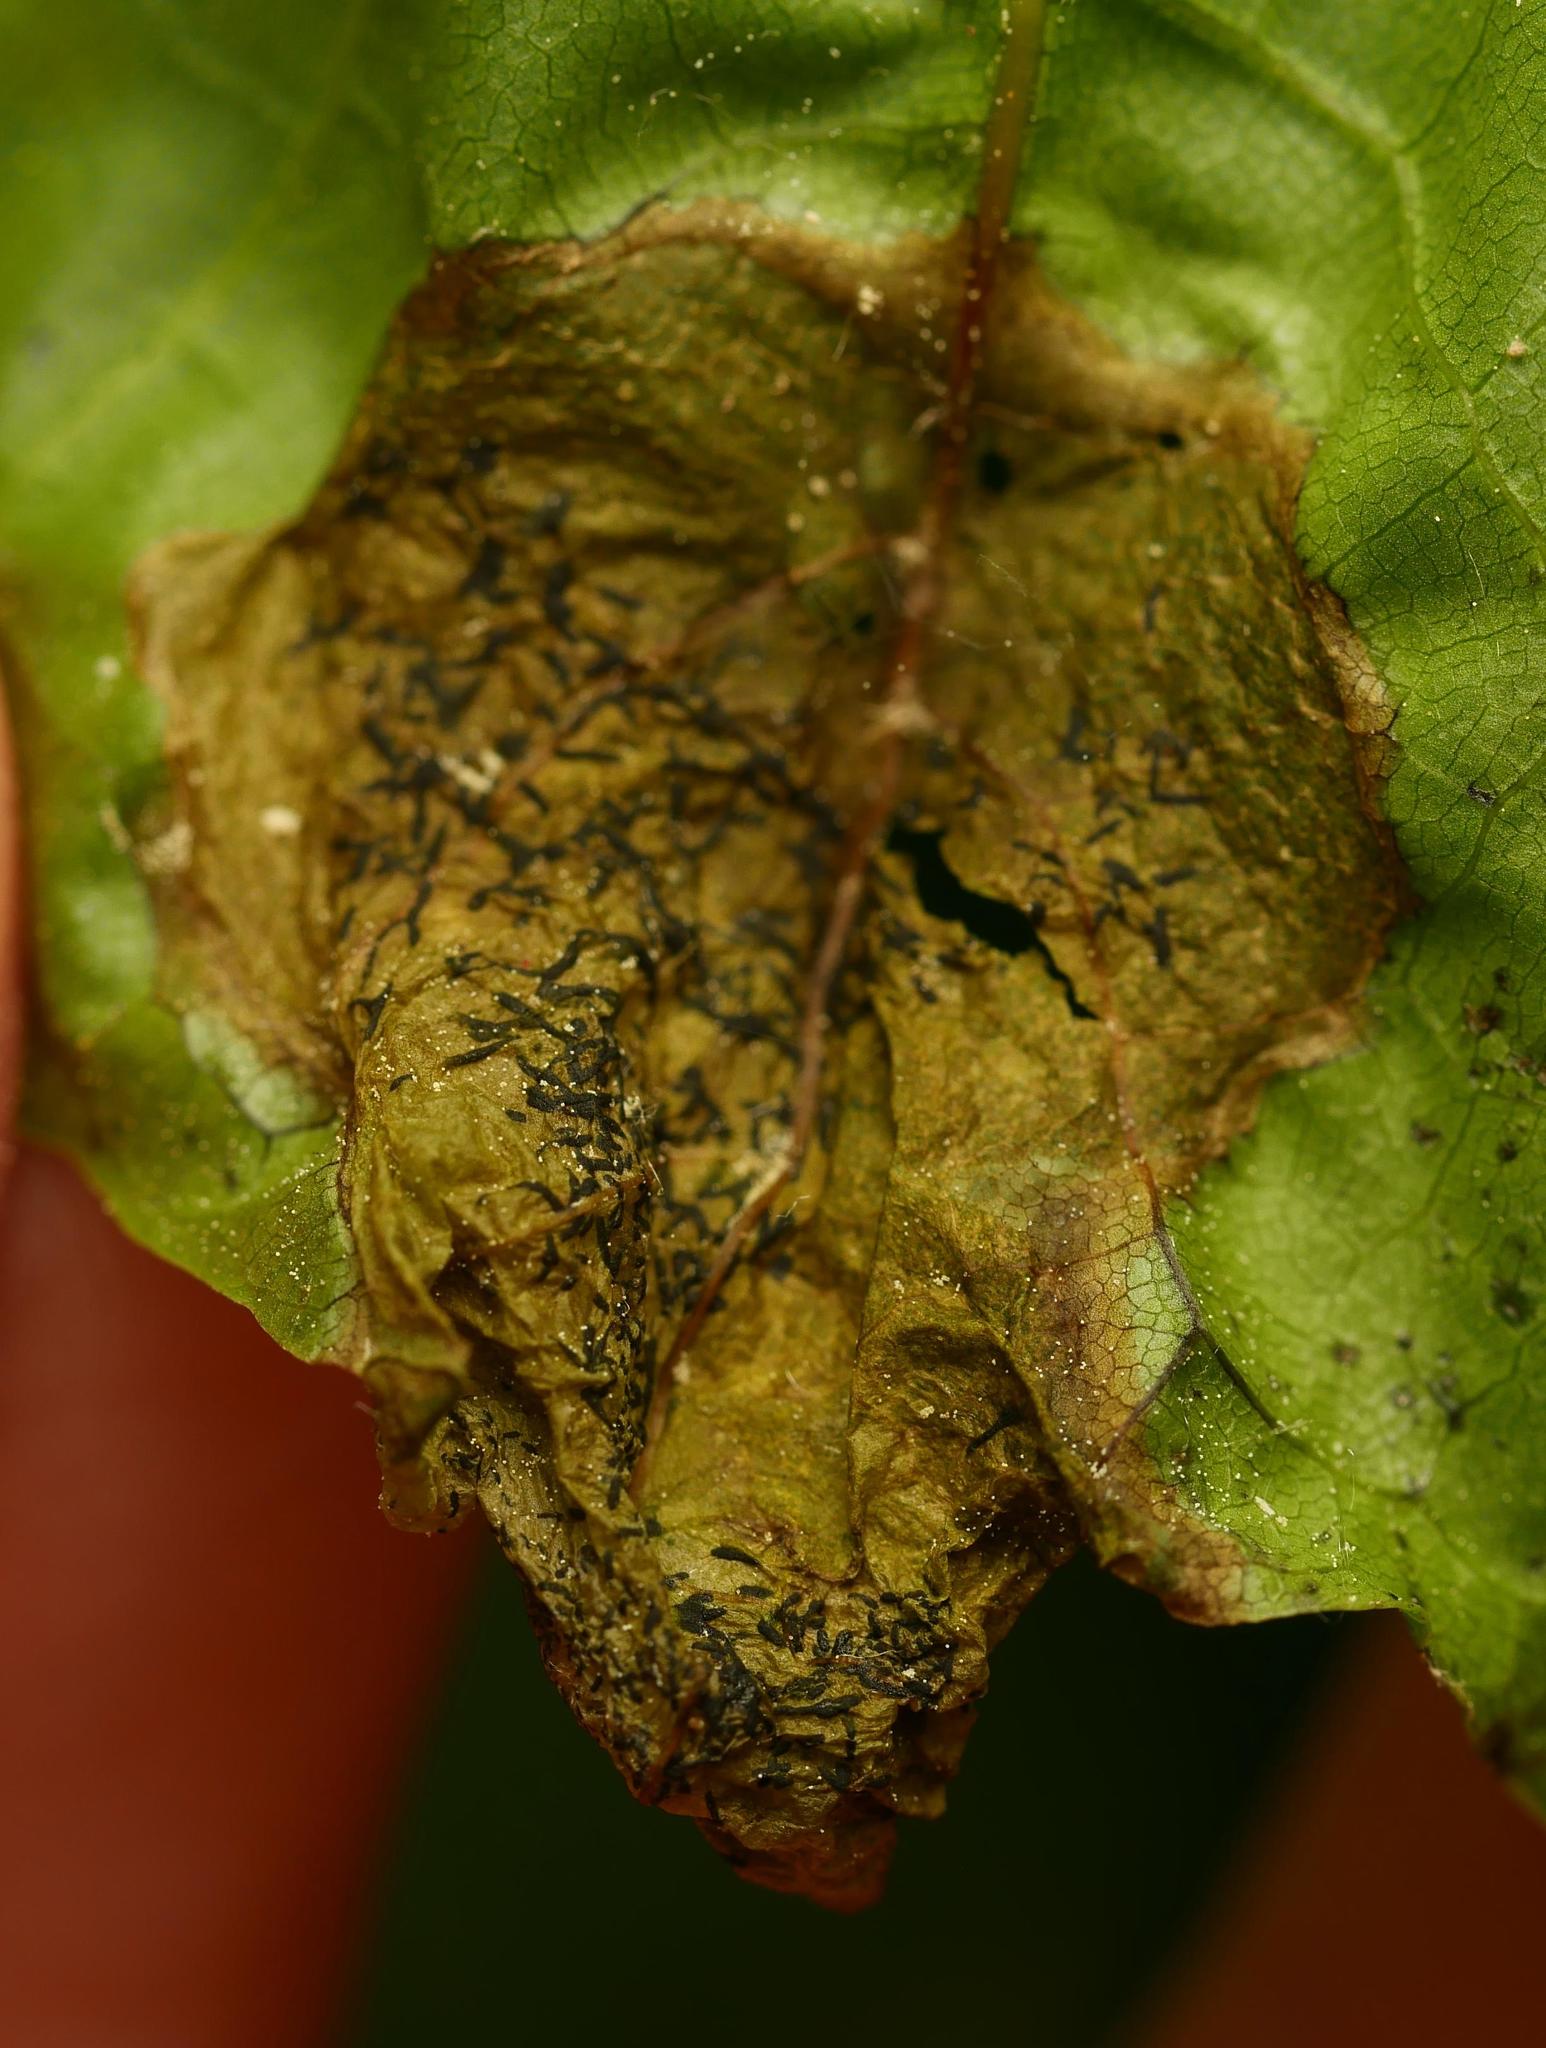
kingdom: Animalia
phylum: Arthropoda
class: Insecta
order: Hymenoptera
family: Tenthredinidae
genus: Hinatara
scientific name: Hinatara recta
